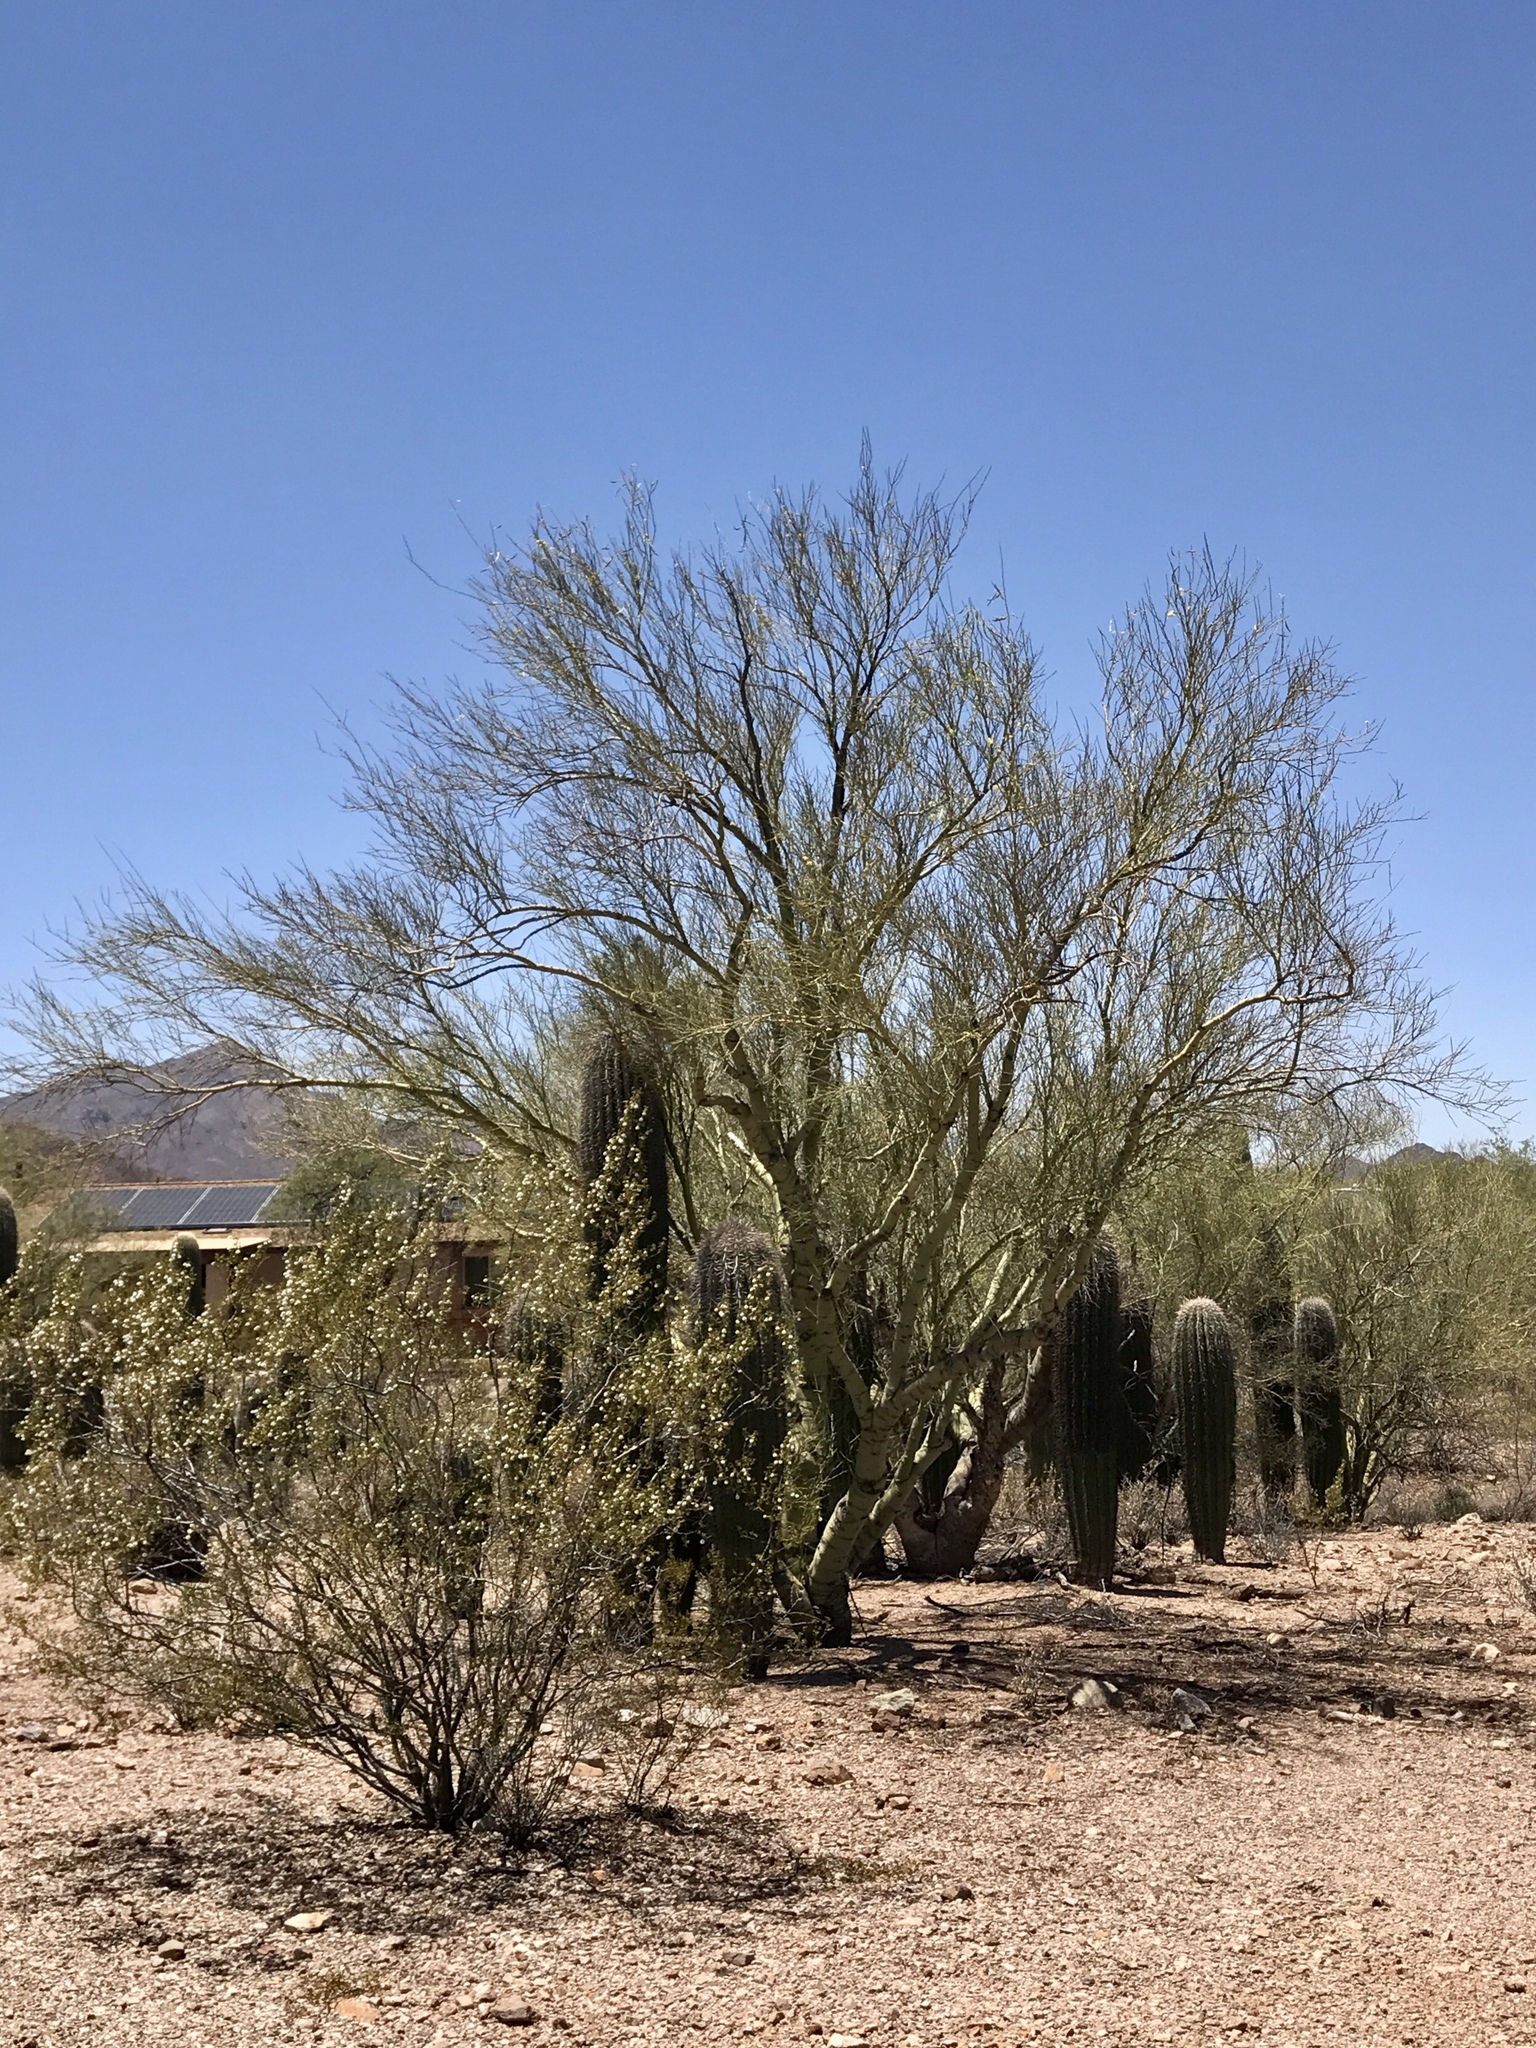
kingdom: Plantae
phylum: Tracheophyta
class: Magnoliopsida
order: Fabales
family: Fabaceae
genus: Parkinsonia
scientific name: Parkinsonia microphylla
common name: Yellow paloverde
